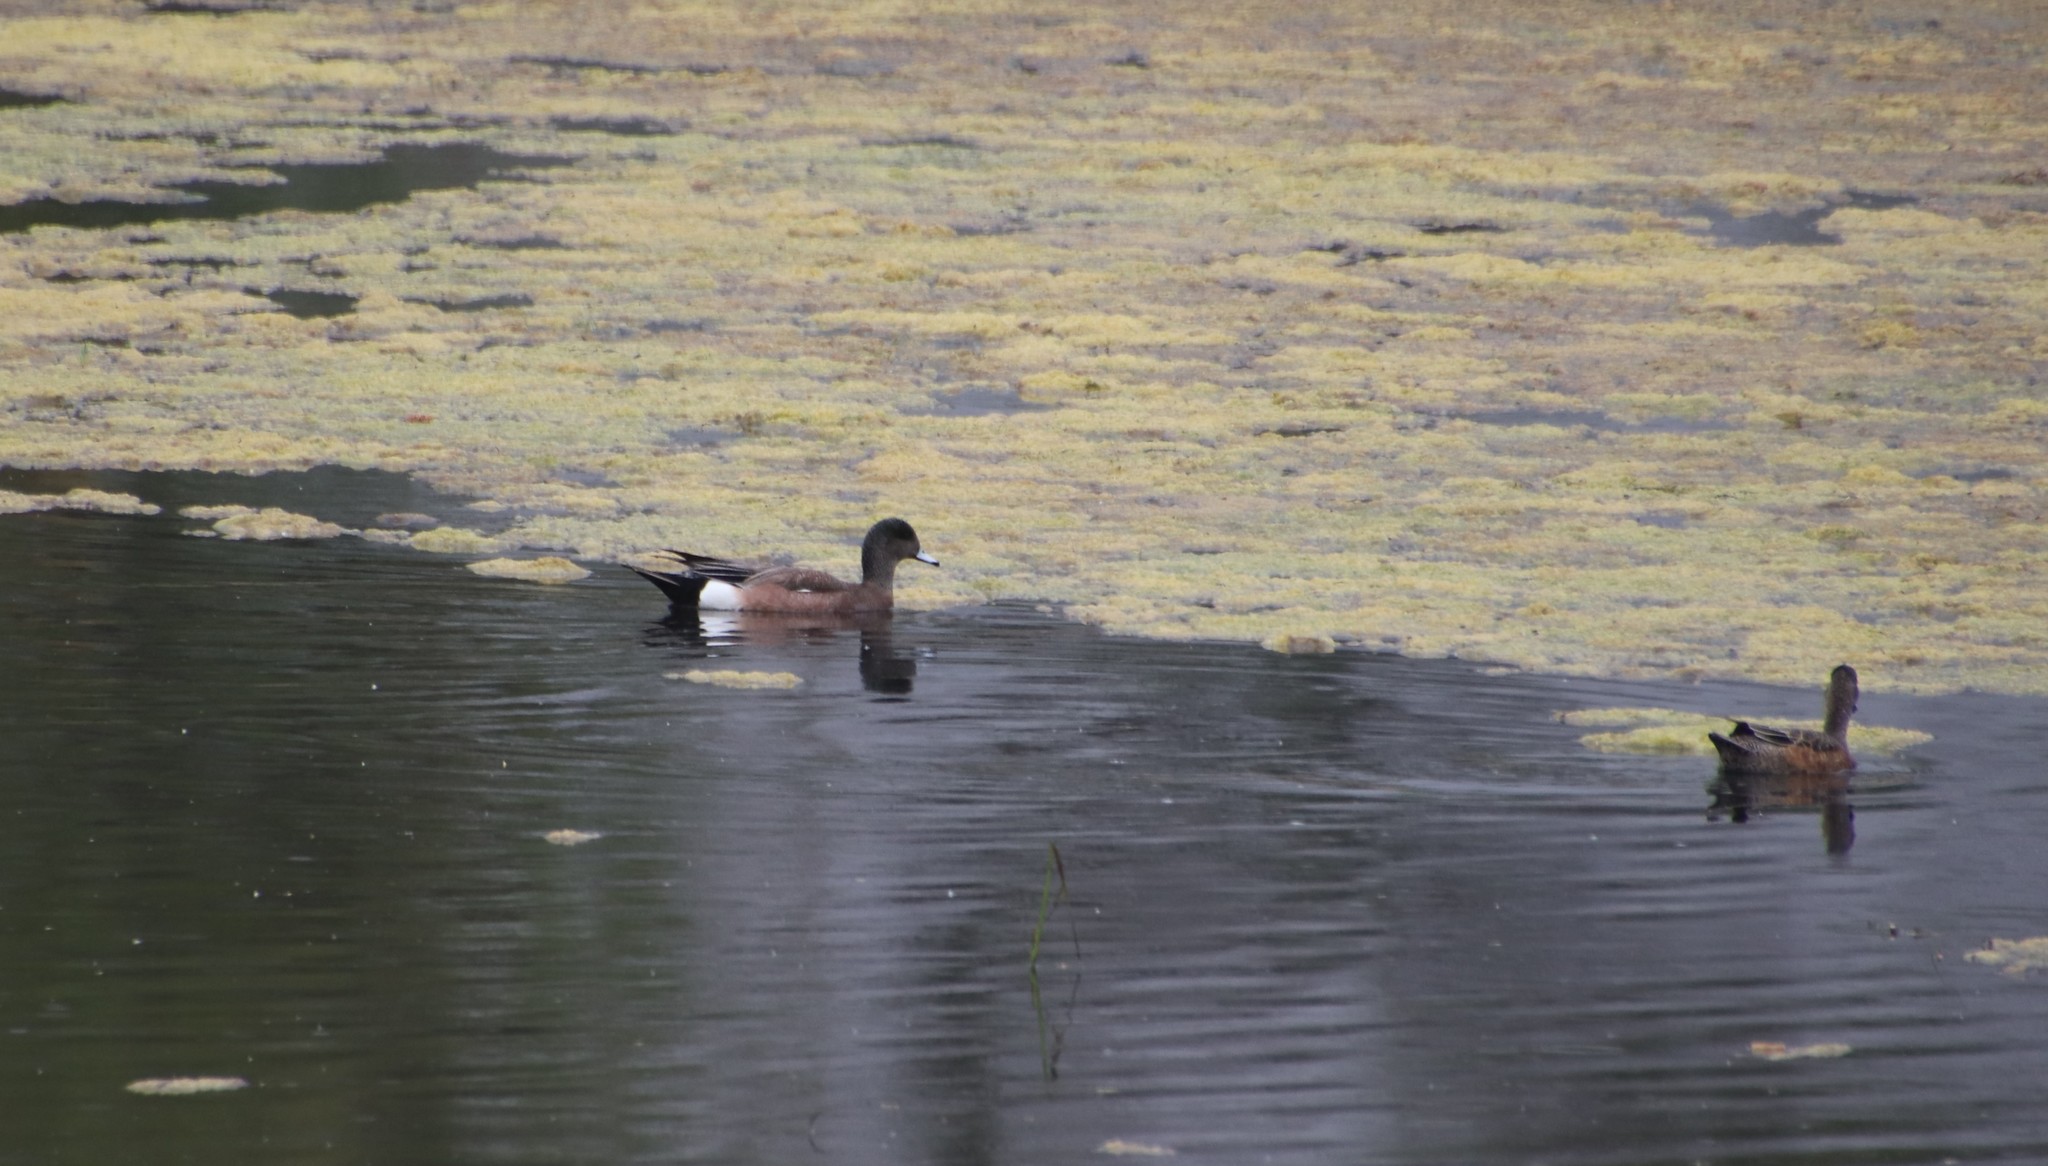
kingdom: Animalia
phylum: Chordata
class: Aves
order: Anseriformes
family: Anatidae
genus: Mareca
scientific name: Mareca americana
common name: American wigeon
